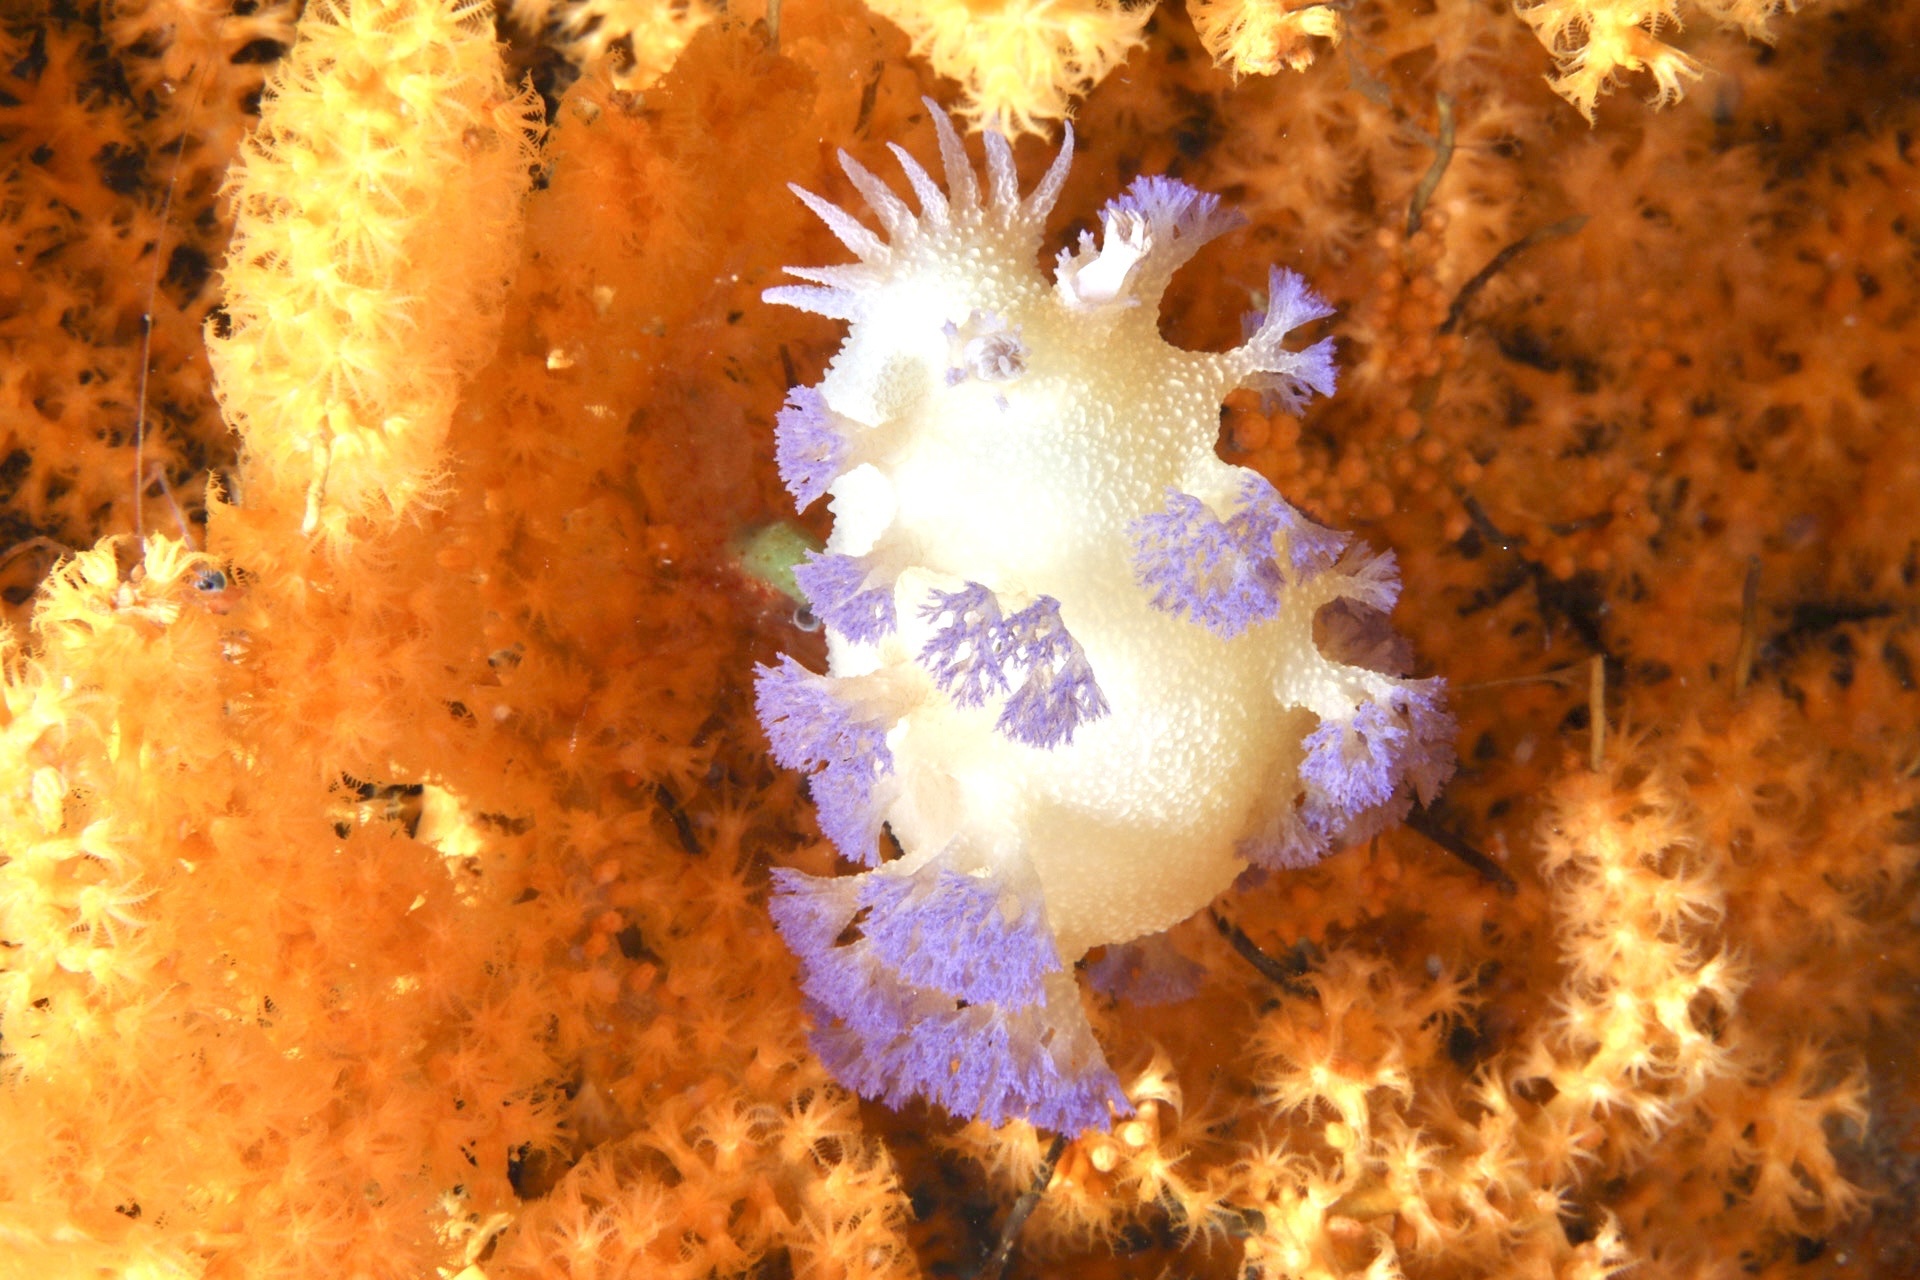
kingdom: Animalia
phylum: Mollusca
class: Gastropoda
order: Nudibranchia
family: Tritoniidae
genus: Tritonia
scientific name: Tritonia griegi
